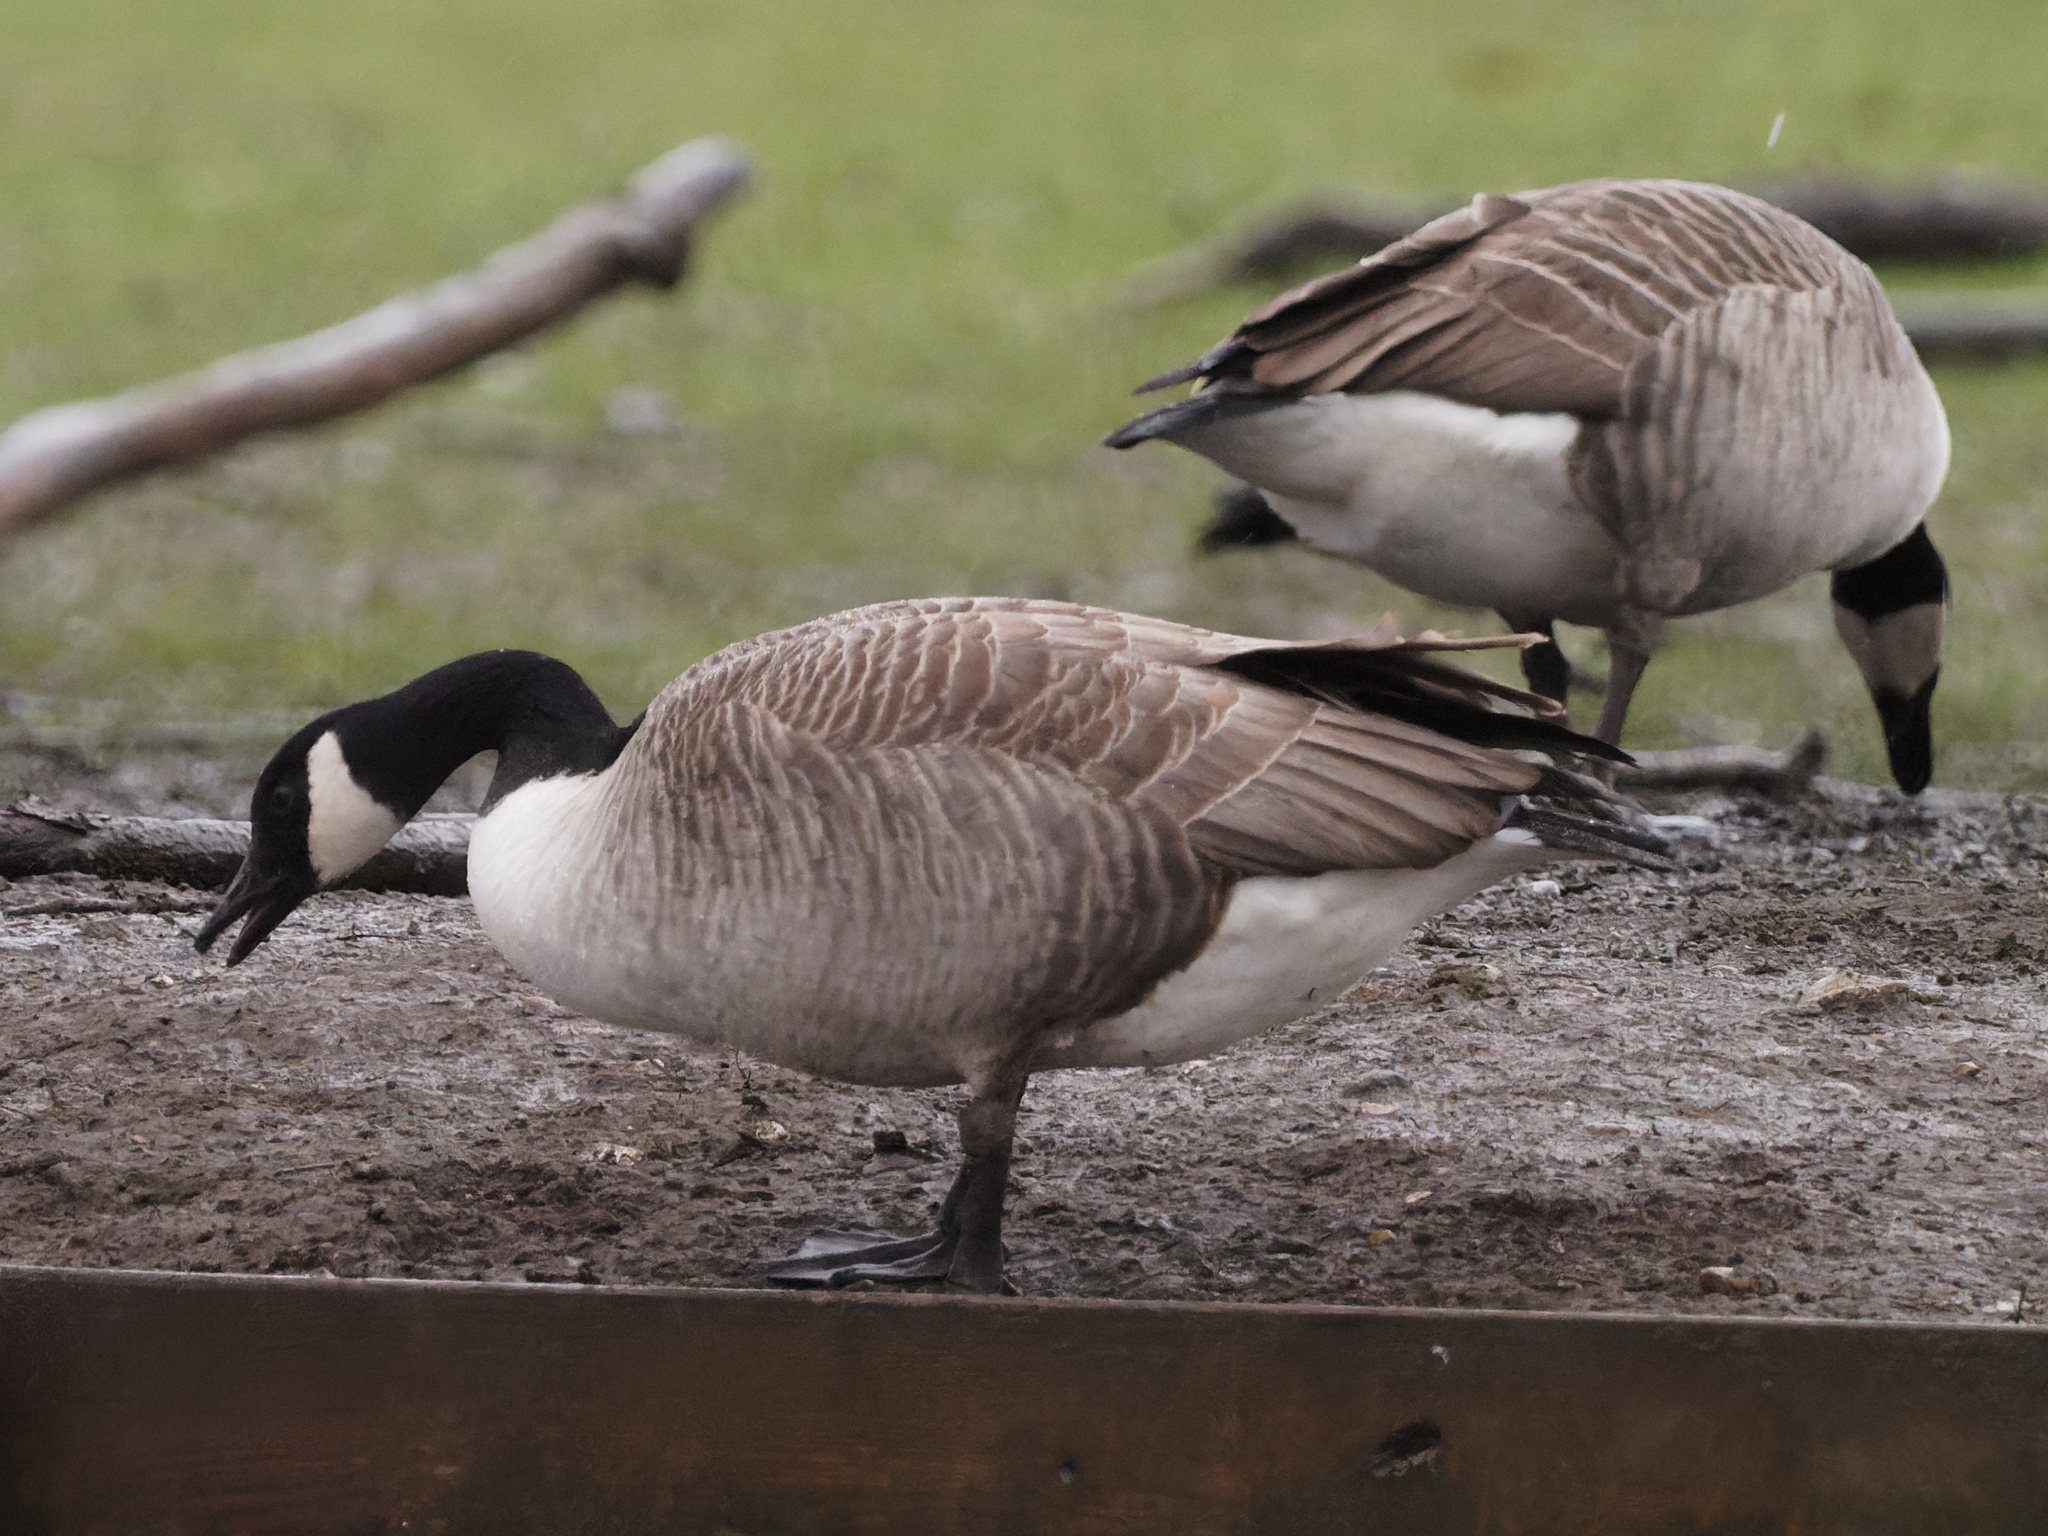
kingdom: Animalia
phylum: Chordata
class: Aves
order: Anseriformes
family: Anatidae
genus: Branta
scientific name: Branta canadensis
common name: Canada goose
